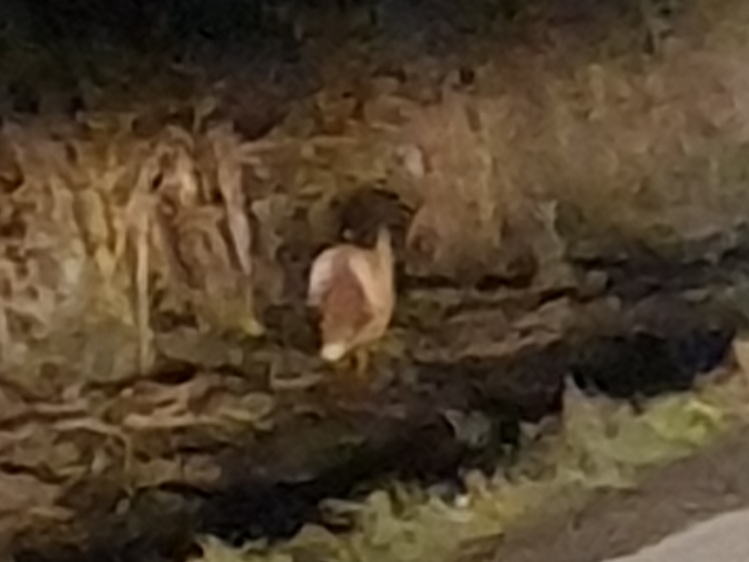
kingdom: Animalia
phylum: Chordata
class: Mammalia
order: Carnivora
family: Canidae
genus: Vulpes
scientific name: Vulpes vulpes
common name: Red fox
